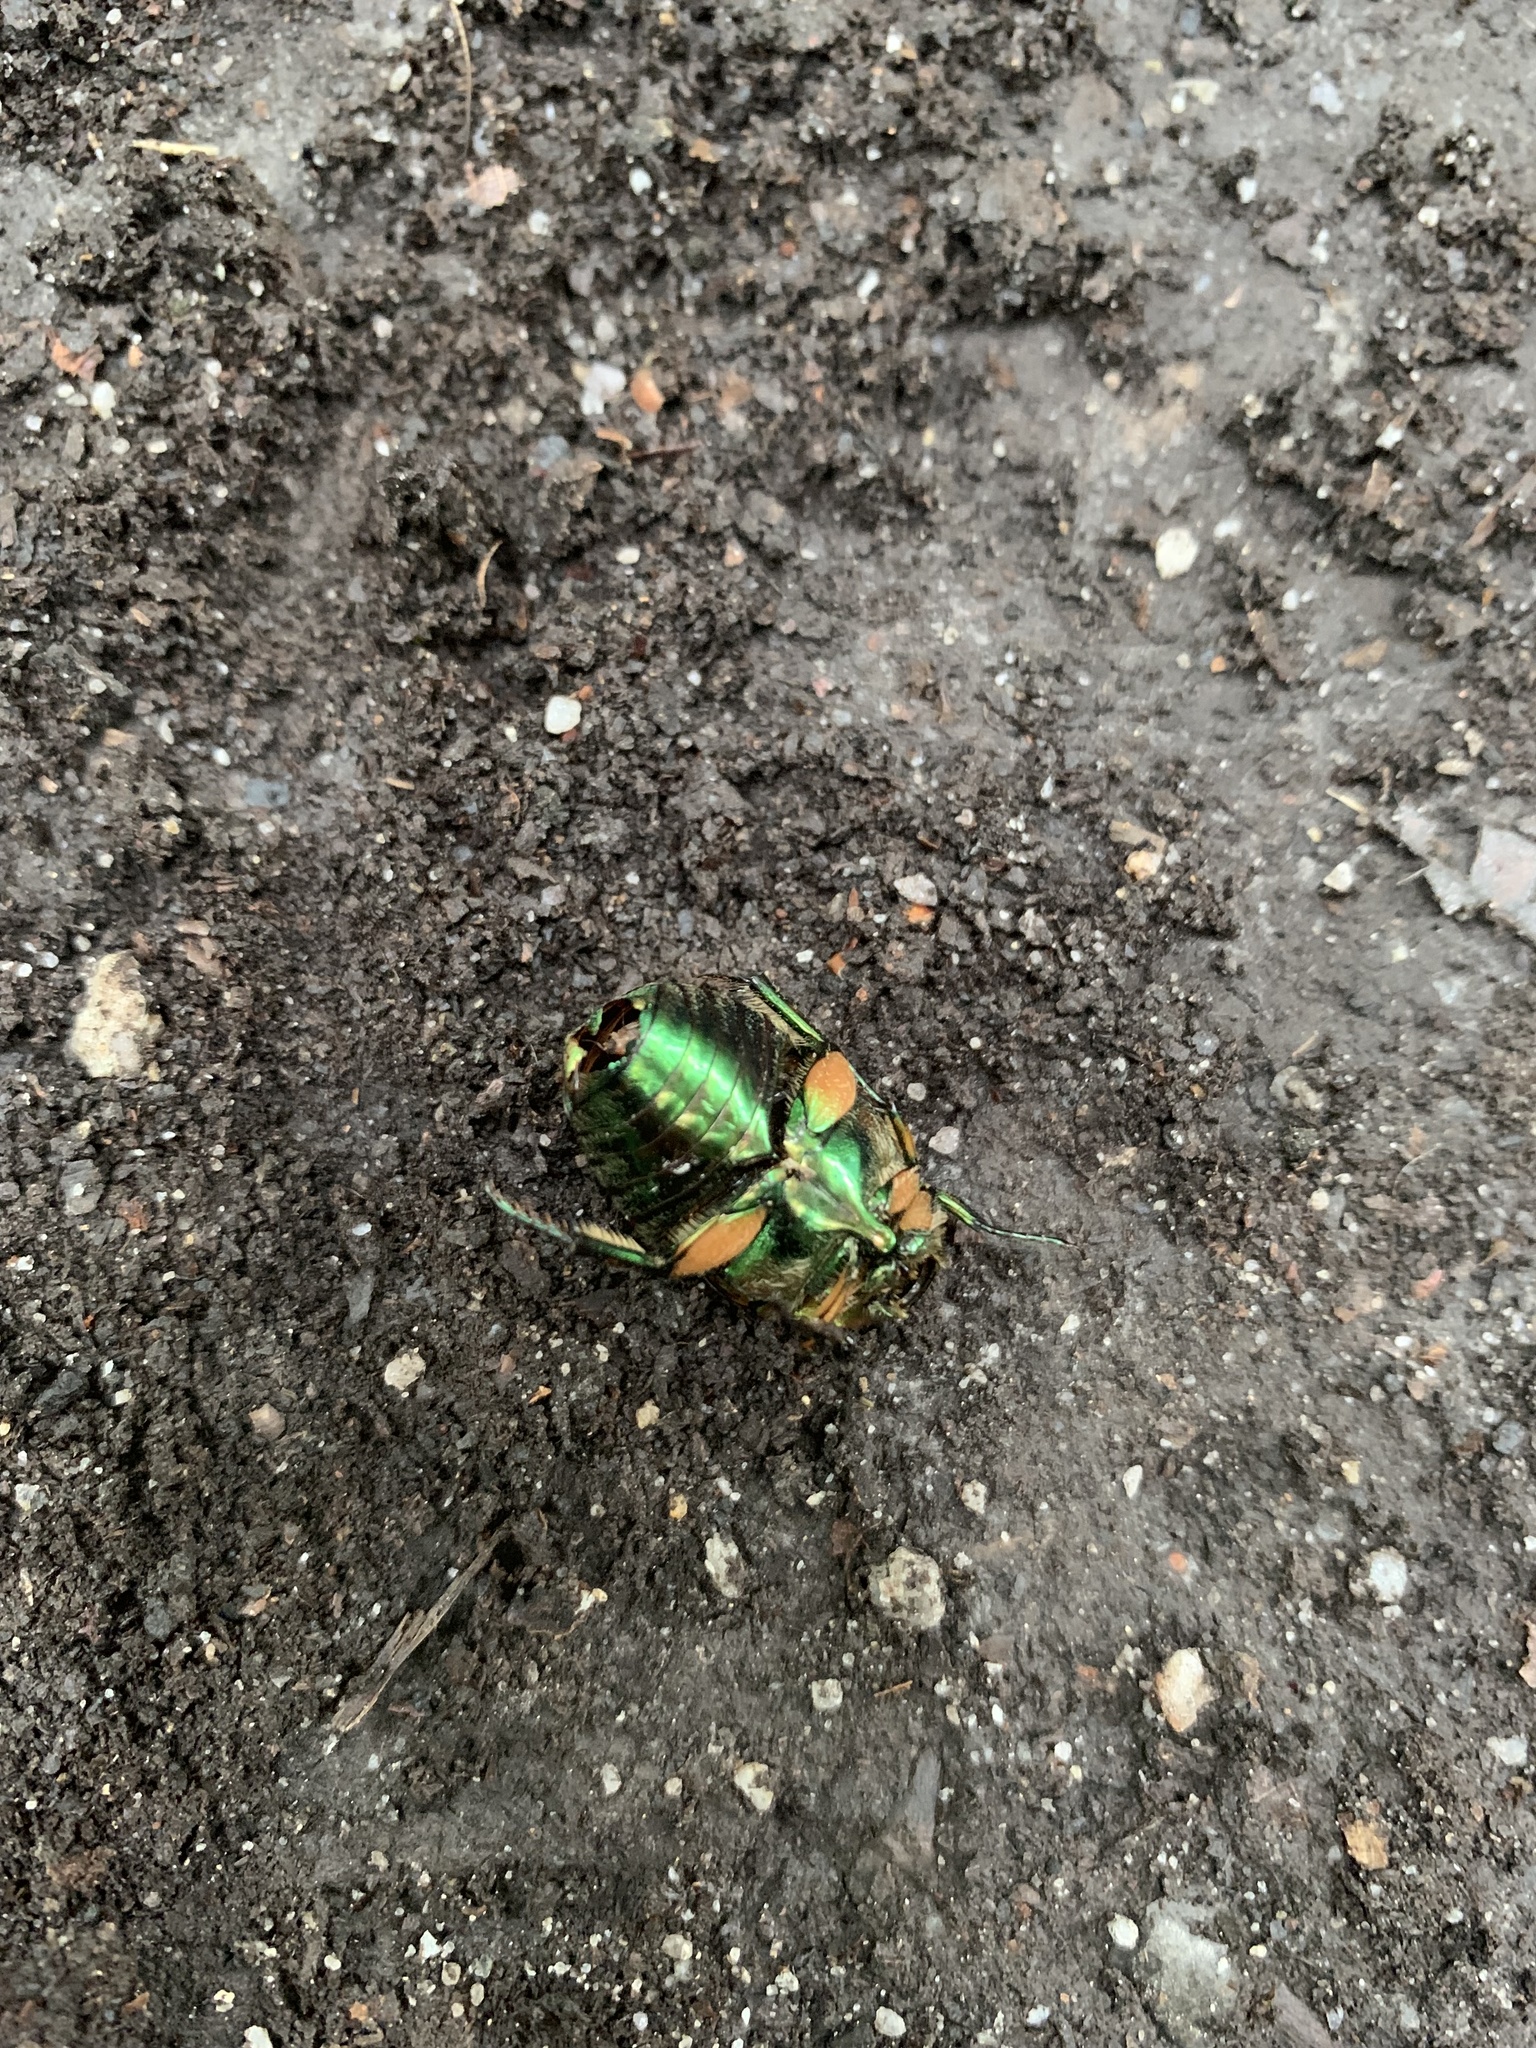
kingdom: Animalia
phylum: Arthropoda
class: Insecta
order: Coleoptera
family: Scarabaeidae
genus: Cotinis
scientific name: Cotinis nitida
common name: Common green june beetle
